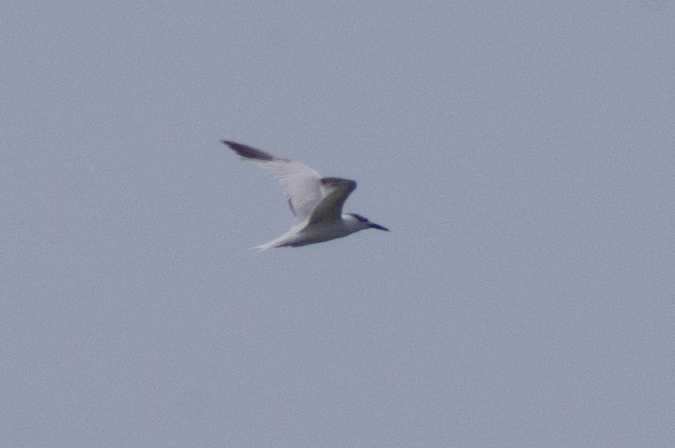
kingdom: Animalia
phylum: Chordata
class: Aves
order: Charadriiformes
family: Laridae
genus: Thalasseus
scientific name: Thalasseus sandvicensis
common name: Sandwich tern
